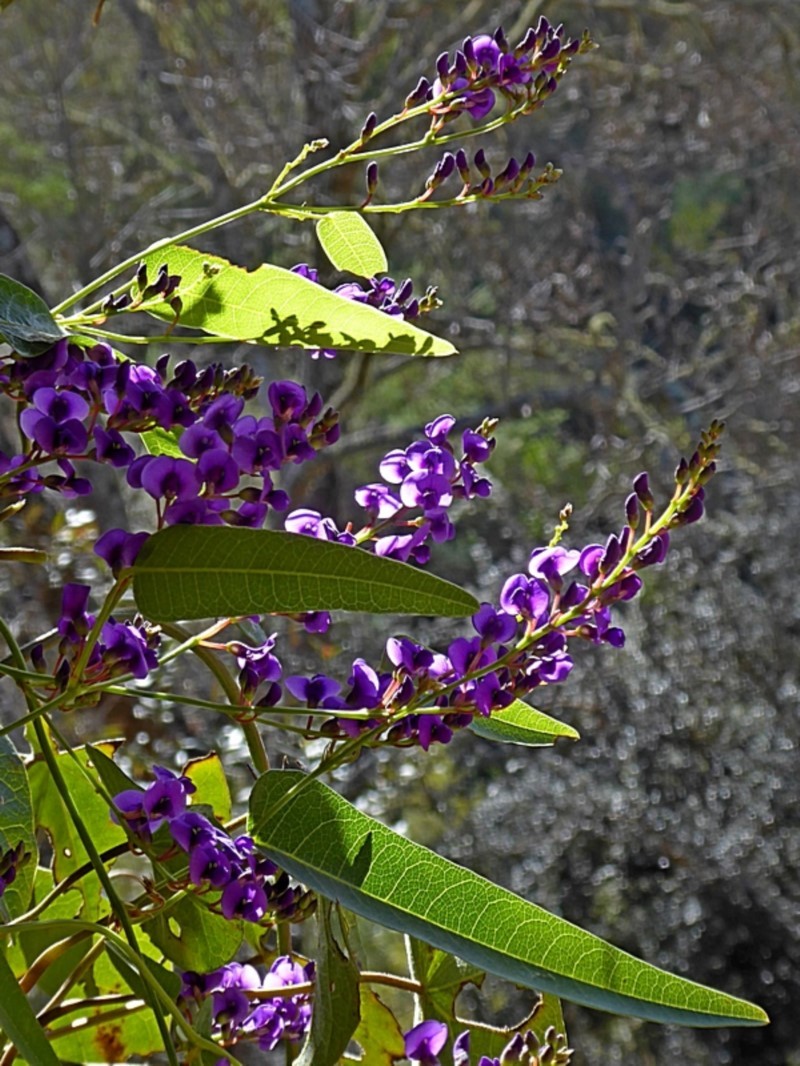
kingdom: Plantae
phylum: Tracheophyta
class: Magnoliopsida
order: Fabales
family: Fabaceae
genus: Hardenbergia
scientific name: Hardenbergia violacea
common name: Coral-pea
